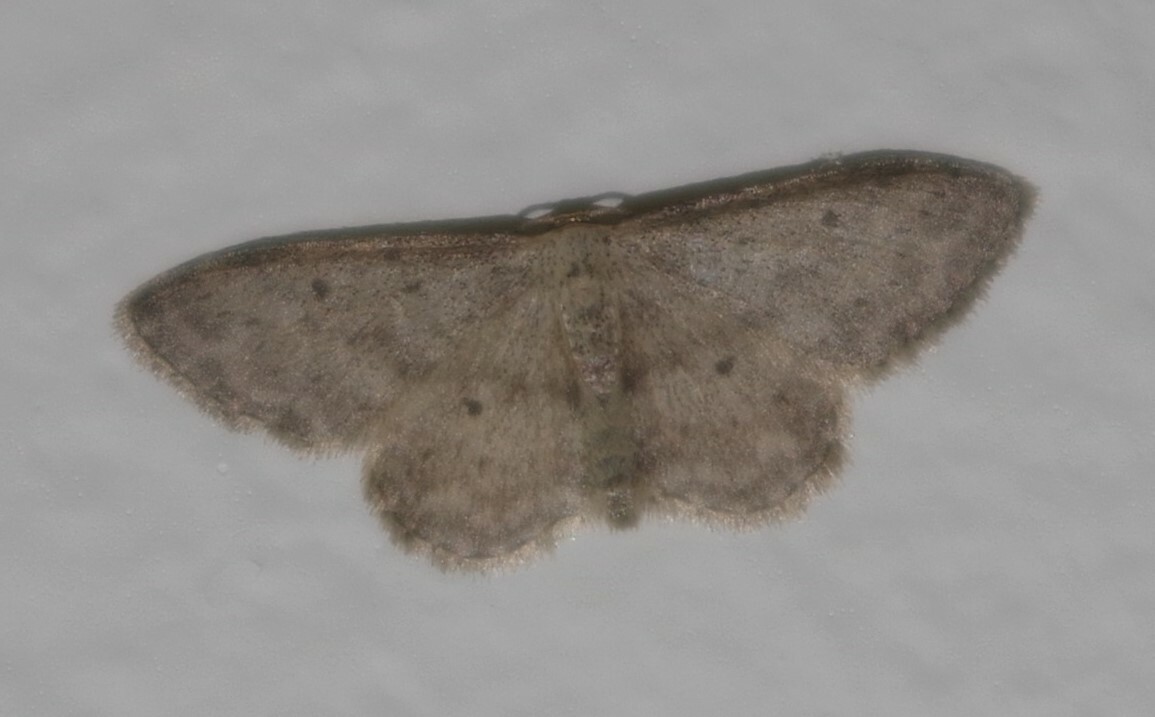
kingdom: Animalia
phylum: Arthropoda
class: Insecta
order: Lepidoptera
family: Geometridae
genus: Idaea
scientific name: Idaea seriata
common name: Small dusty wave
